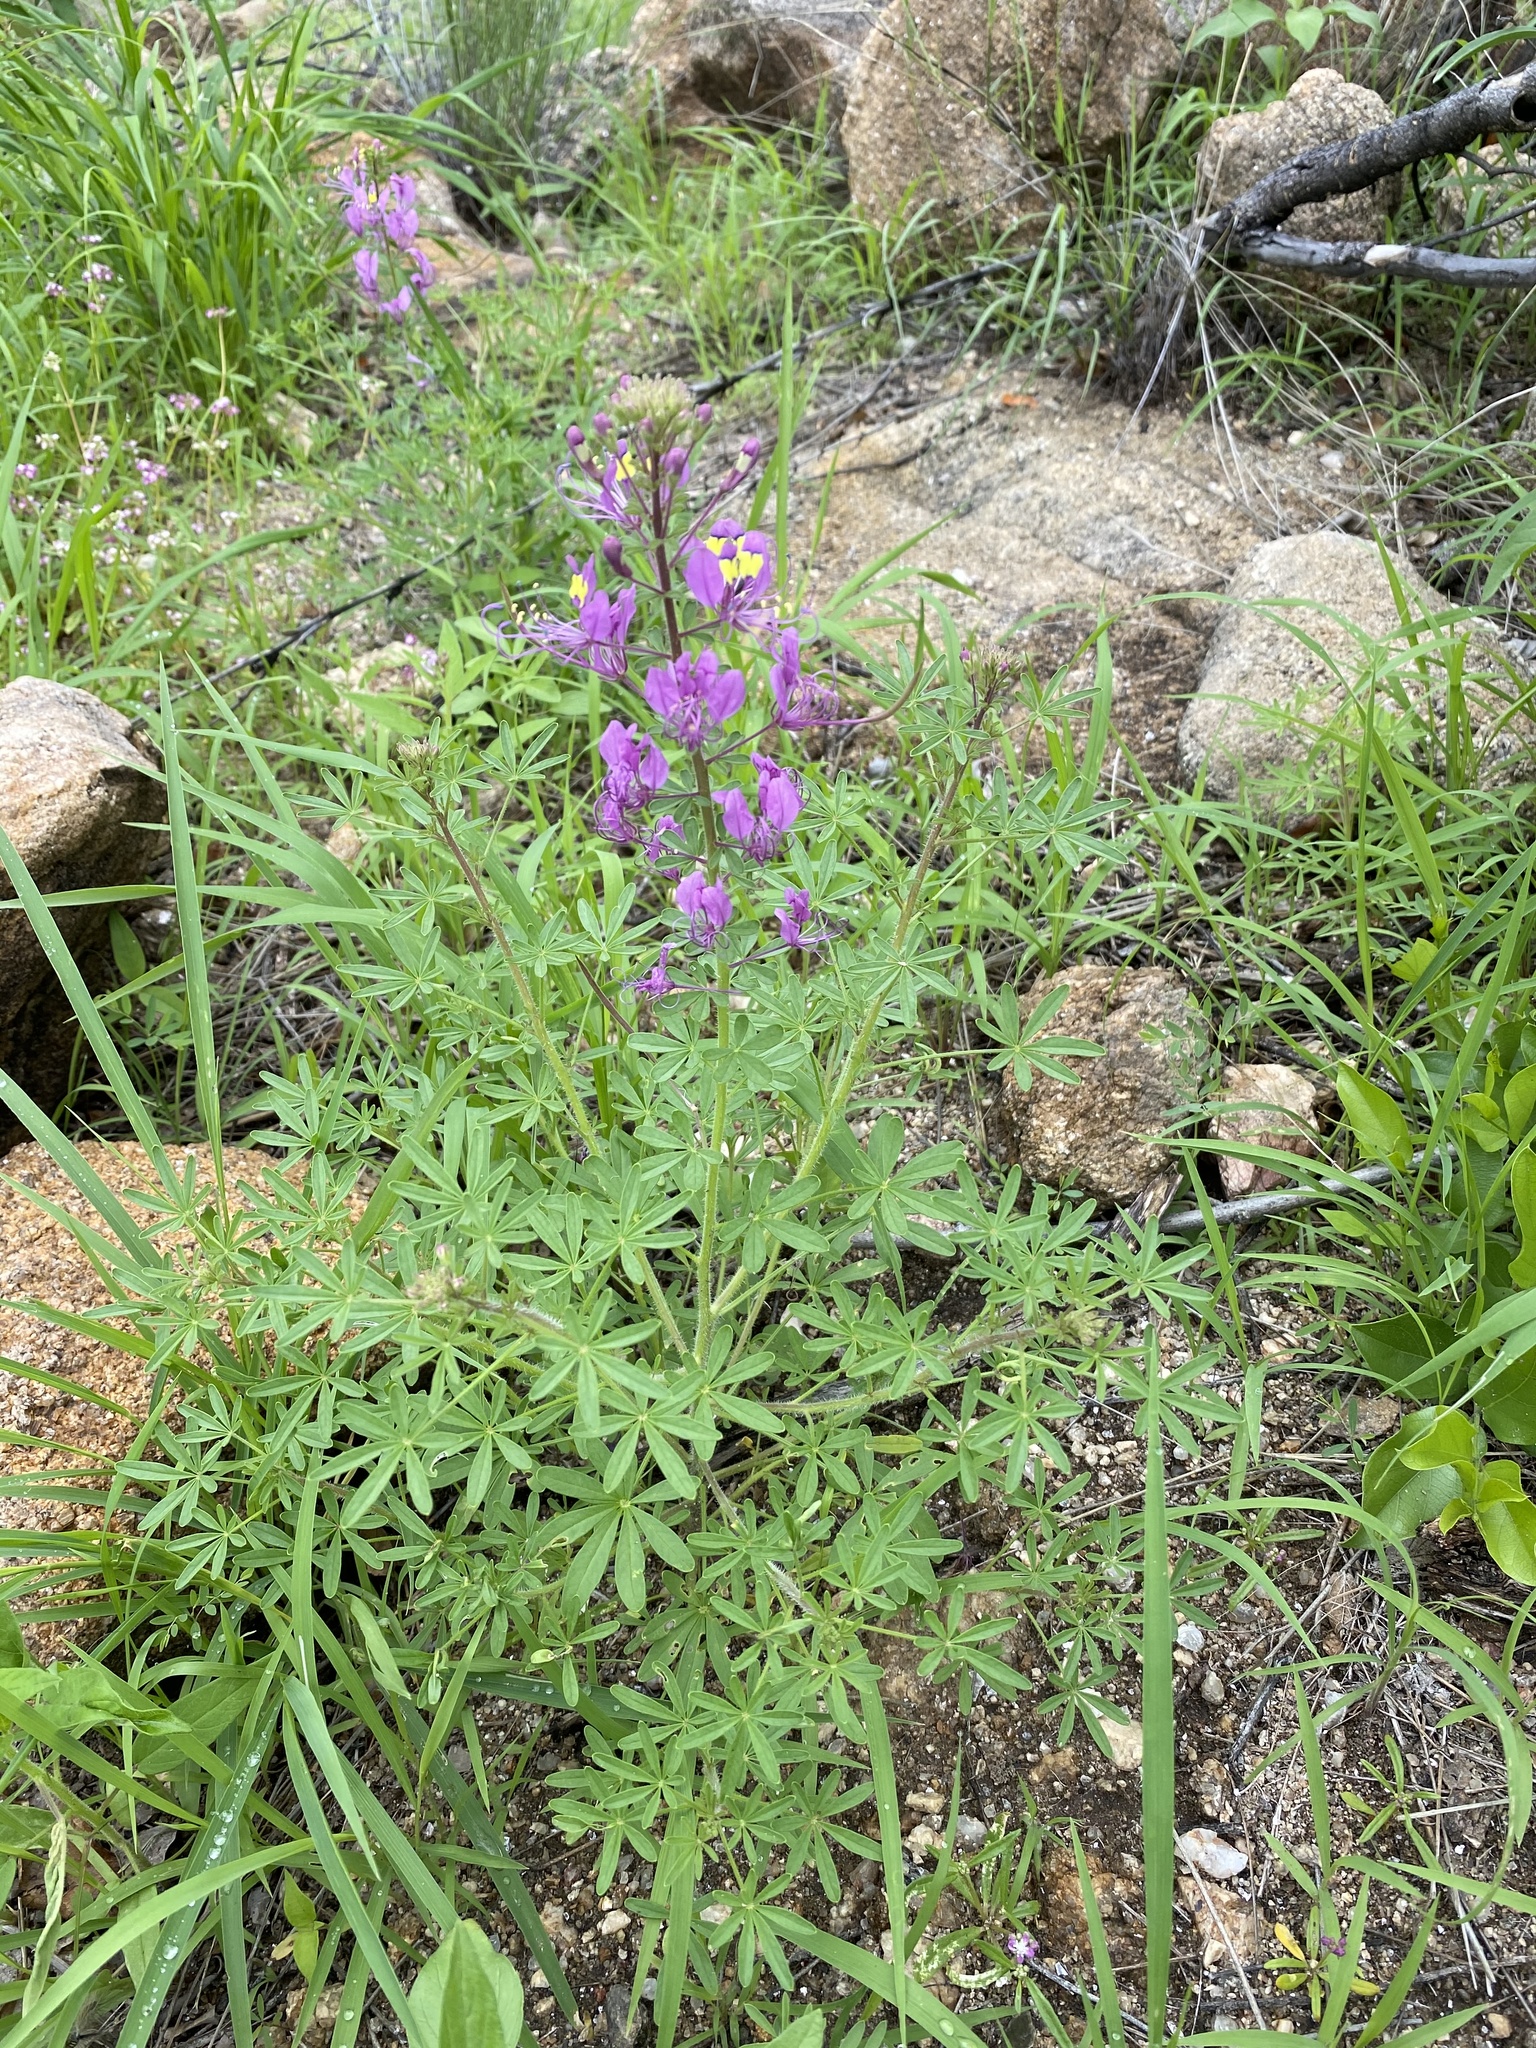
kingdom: Plantae
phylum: Tracheophyta
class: Magnoliopsida
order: Brassicales
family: Cleomaceae
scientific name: Cleomaceae
